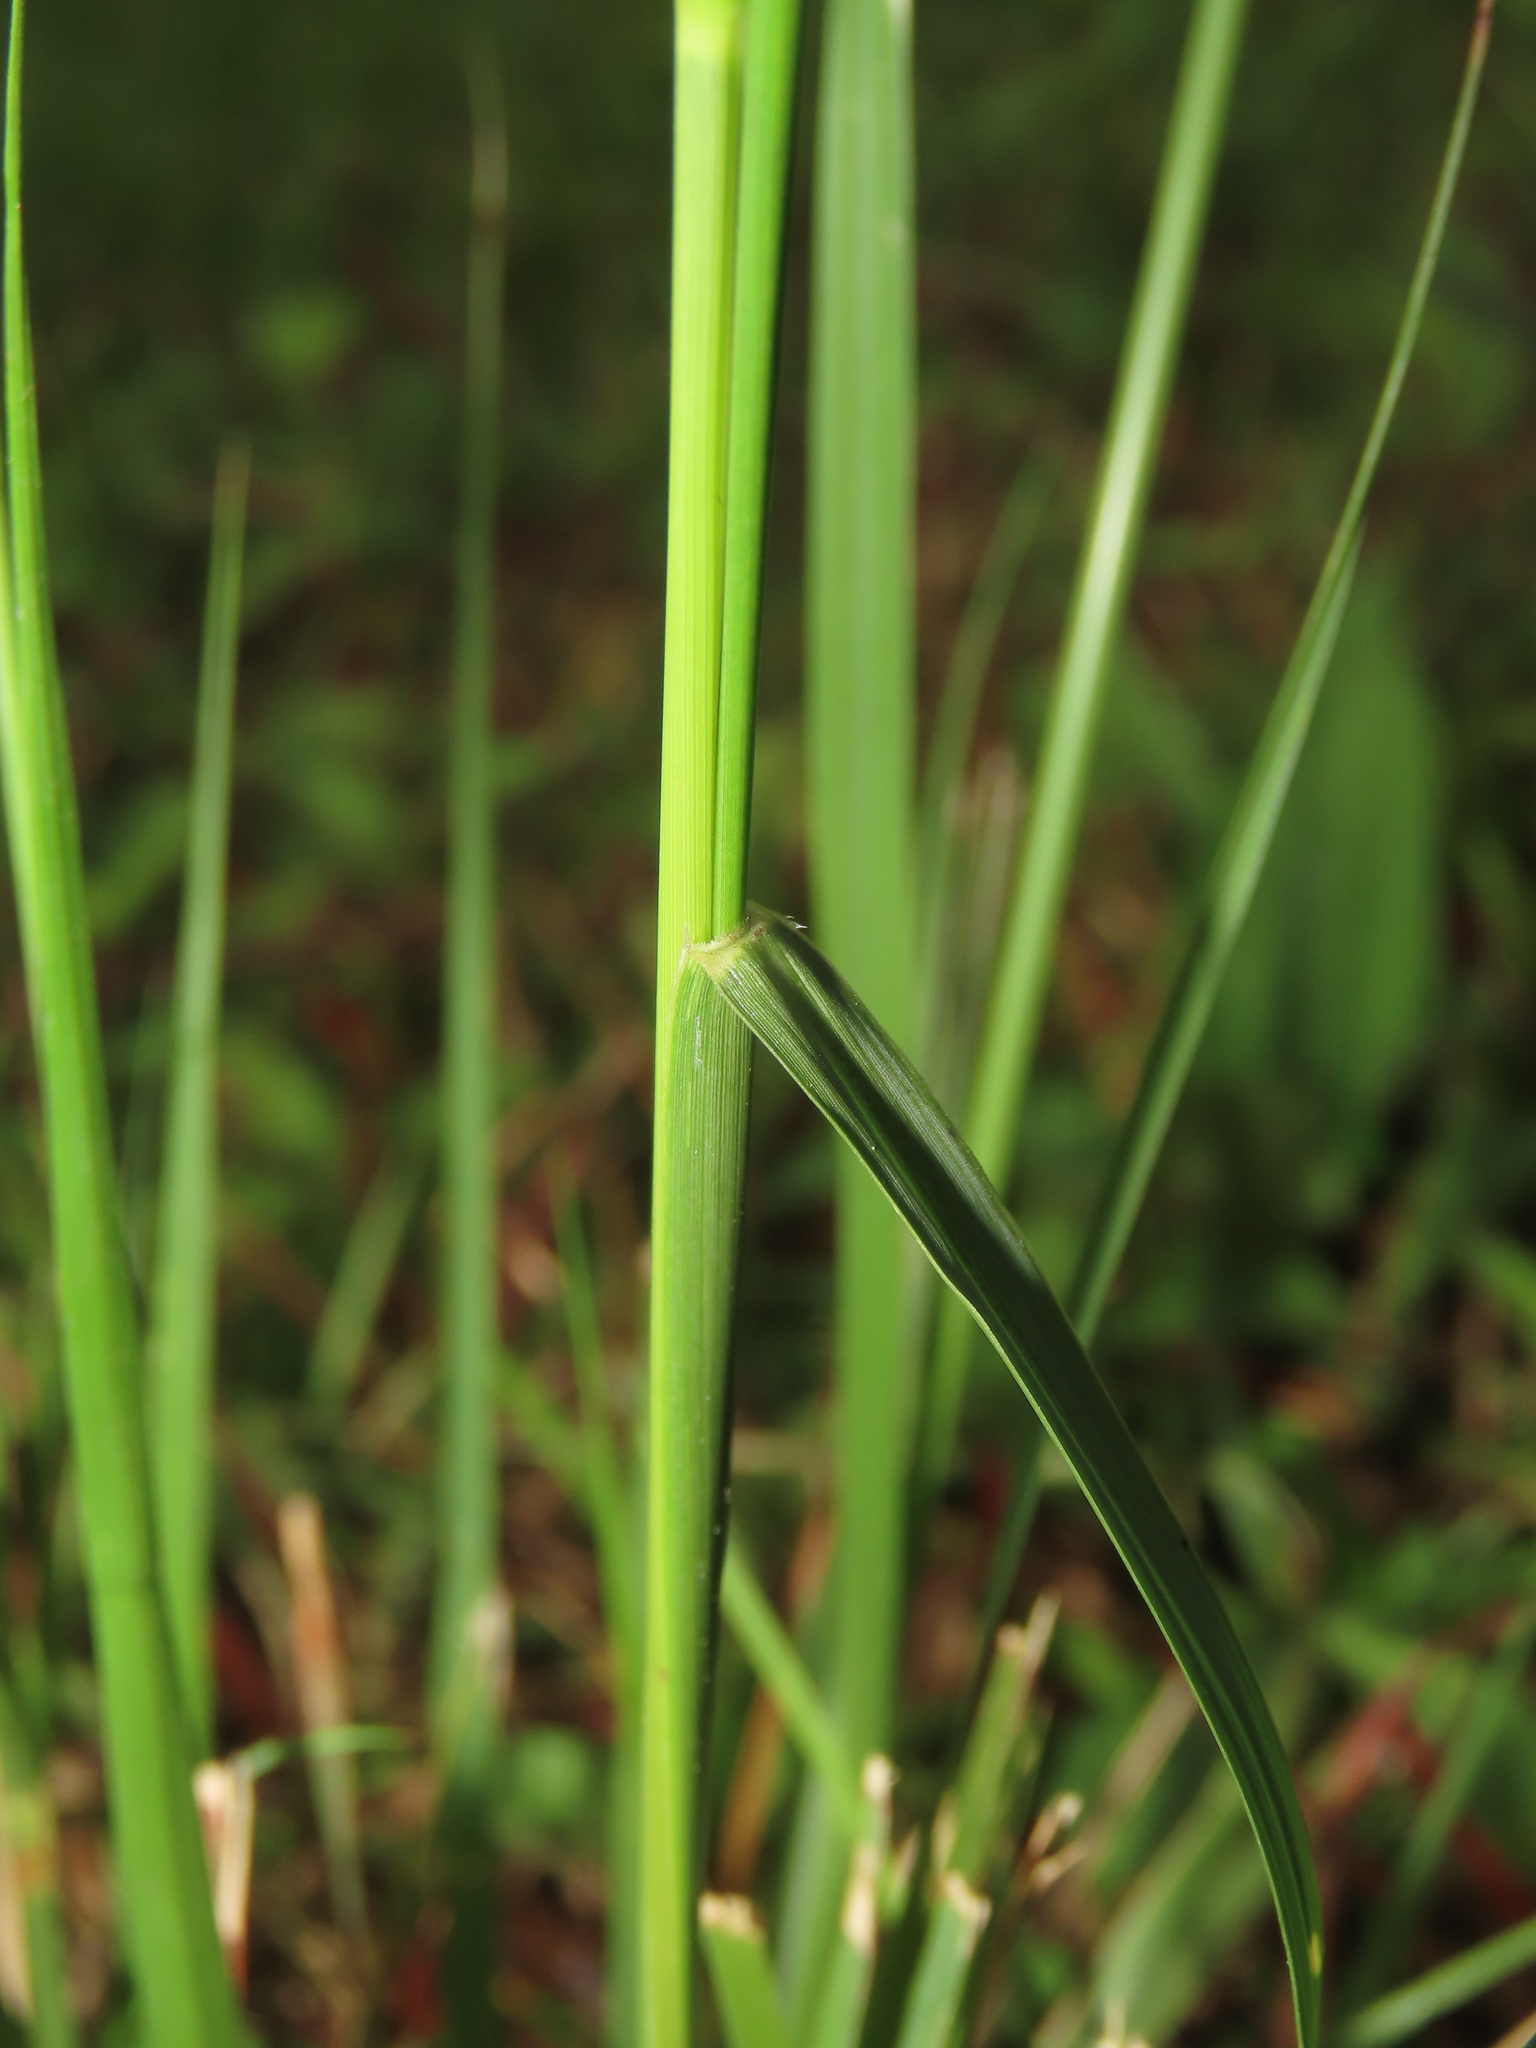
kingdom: Plantae
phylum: Tracheophyta
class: Liliopsida
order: Poales
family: Poaceae
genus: Sporobolus
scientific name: Sporobolus indicus
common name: Smut grass
